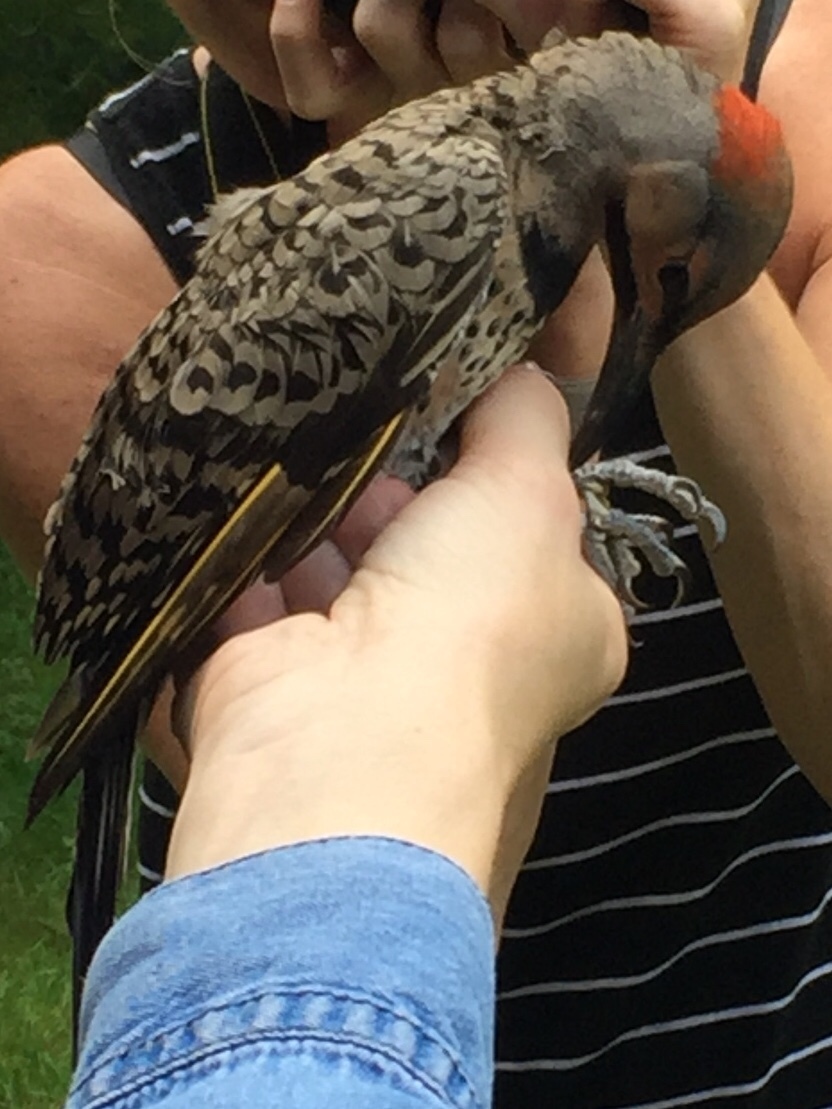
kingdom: Animalia
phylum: Chordata
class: Aves
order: Piciformes
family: Picidae
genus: Colaptes
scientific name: Colaptes auratus
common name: Northern flicker
